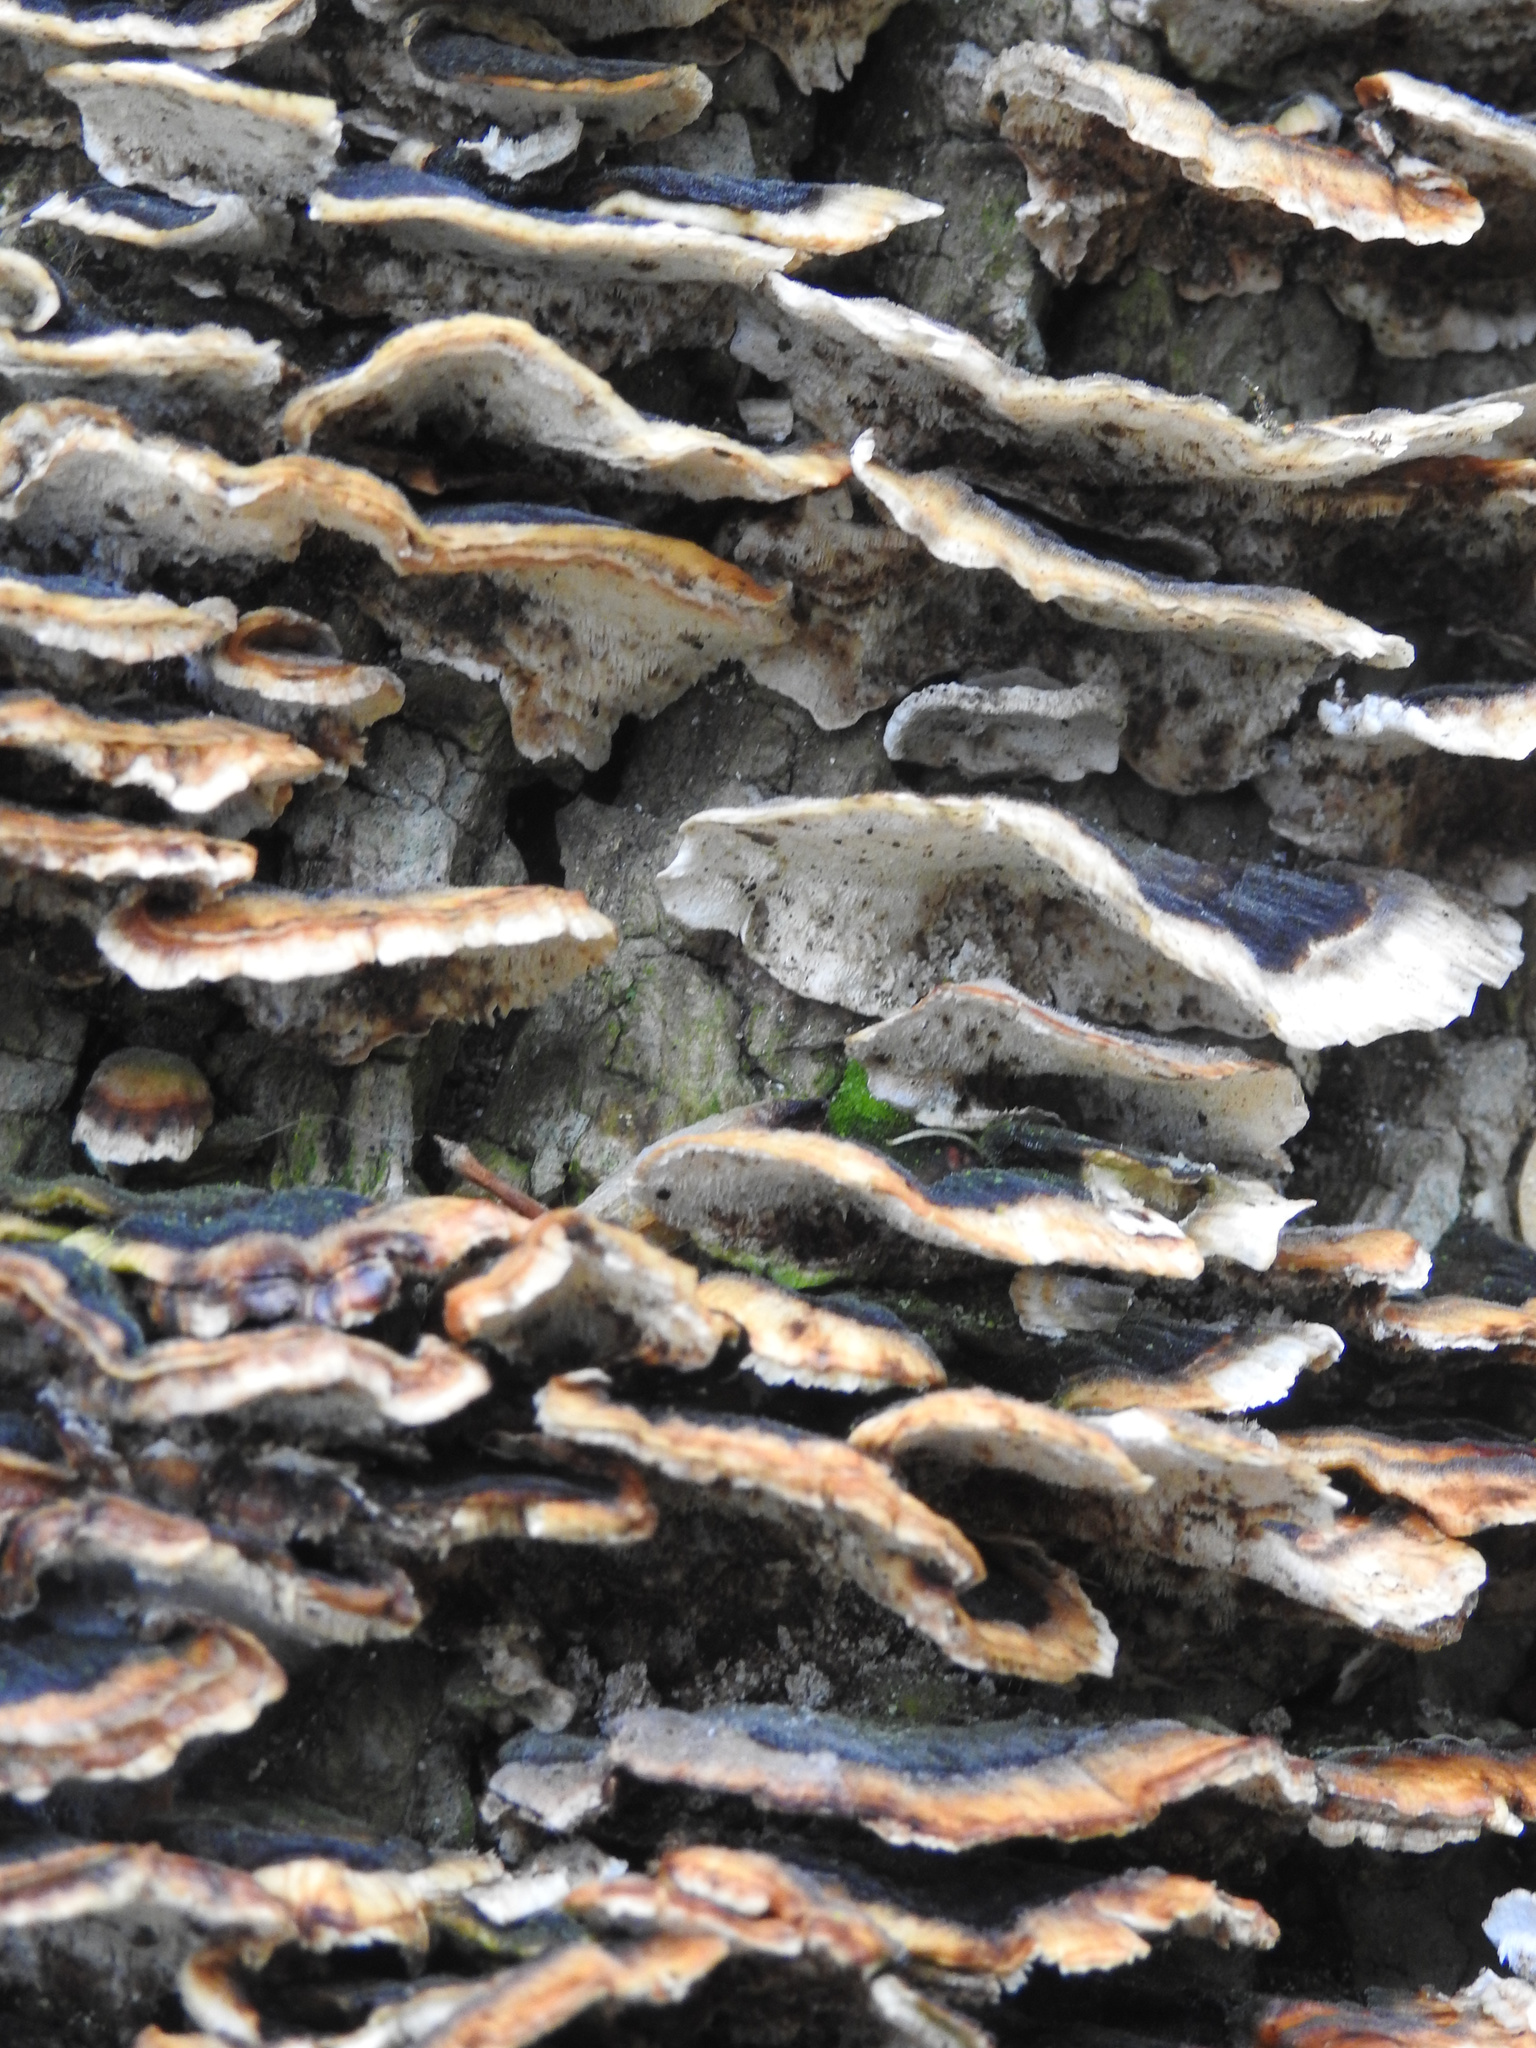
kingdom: Fungi
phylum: Basidiomycota
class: Agaricomycetes
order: Polyporales
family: Polyporaceae
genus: Trametes
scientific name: Trametes versicolor
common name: Turkeytail
